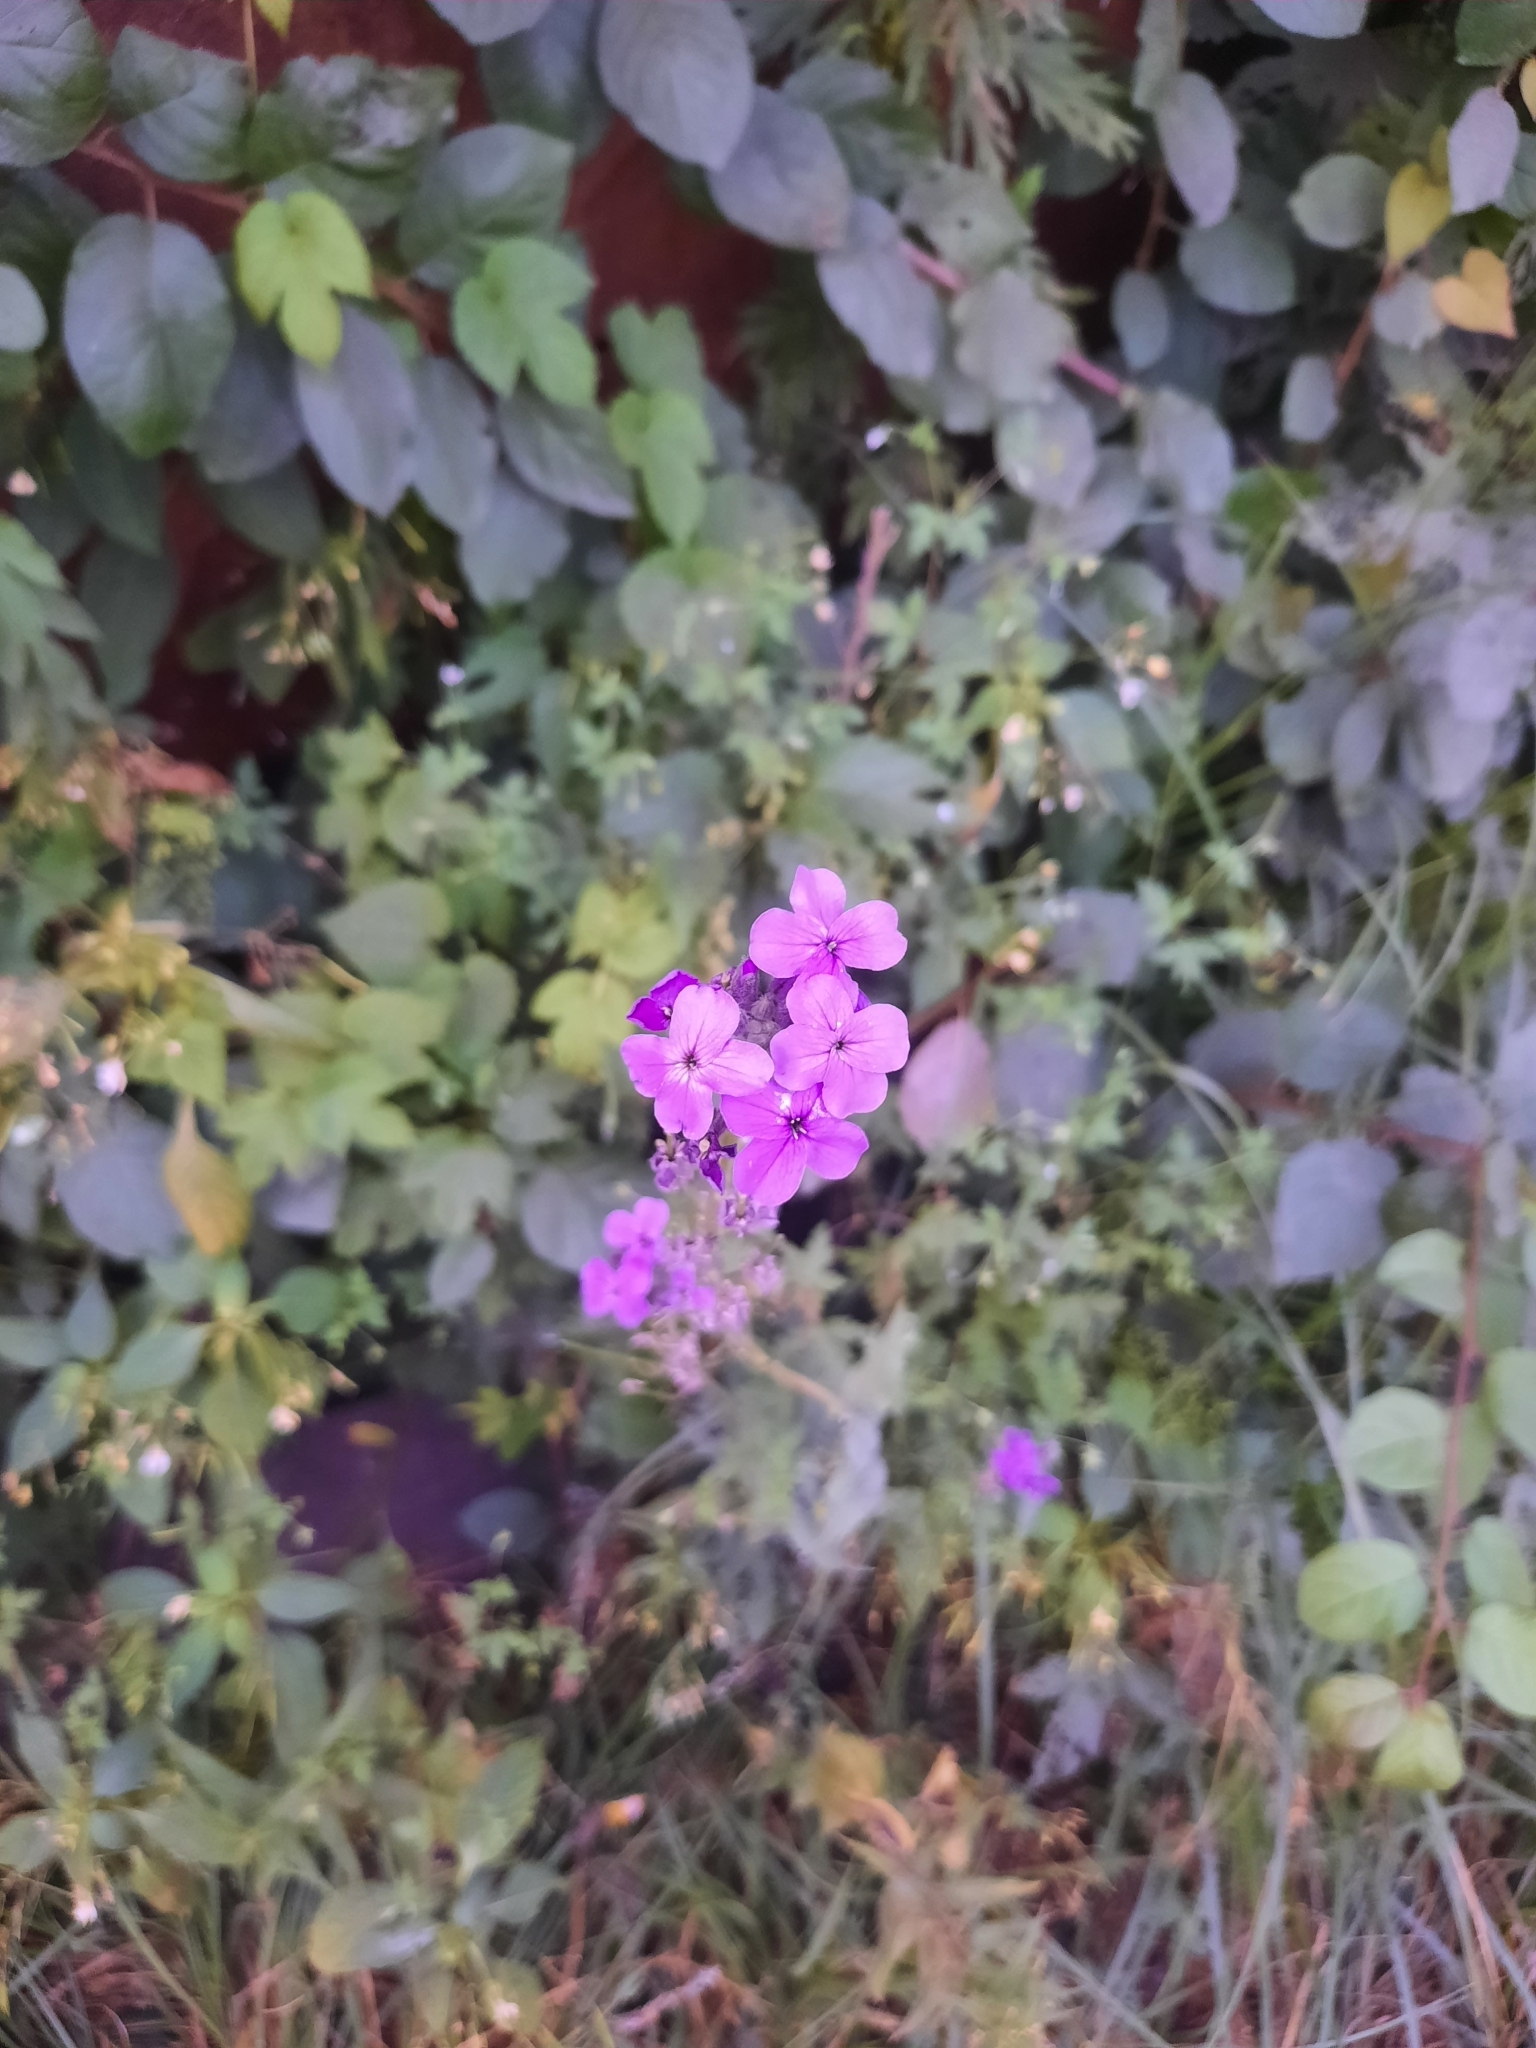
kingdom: Plantae
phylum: Tracheophyta
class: Magnoliopsida
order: Brassicales
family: Brassicaceae
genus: Hesperis
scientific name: Hesperis matronalis
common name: Dame's-violet
